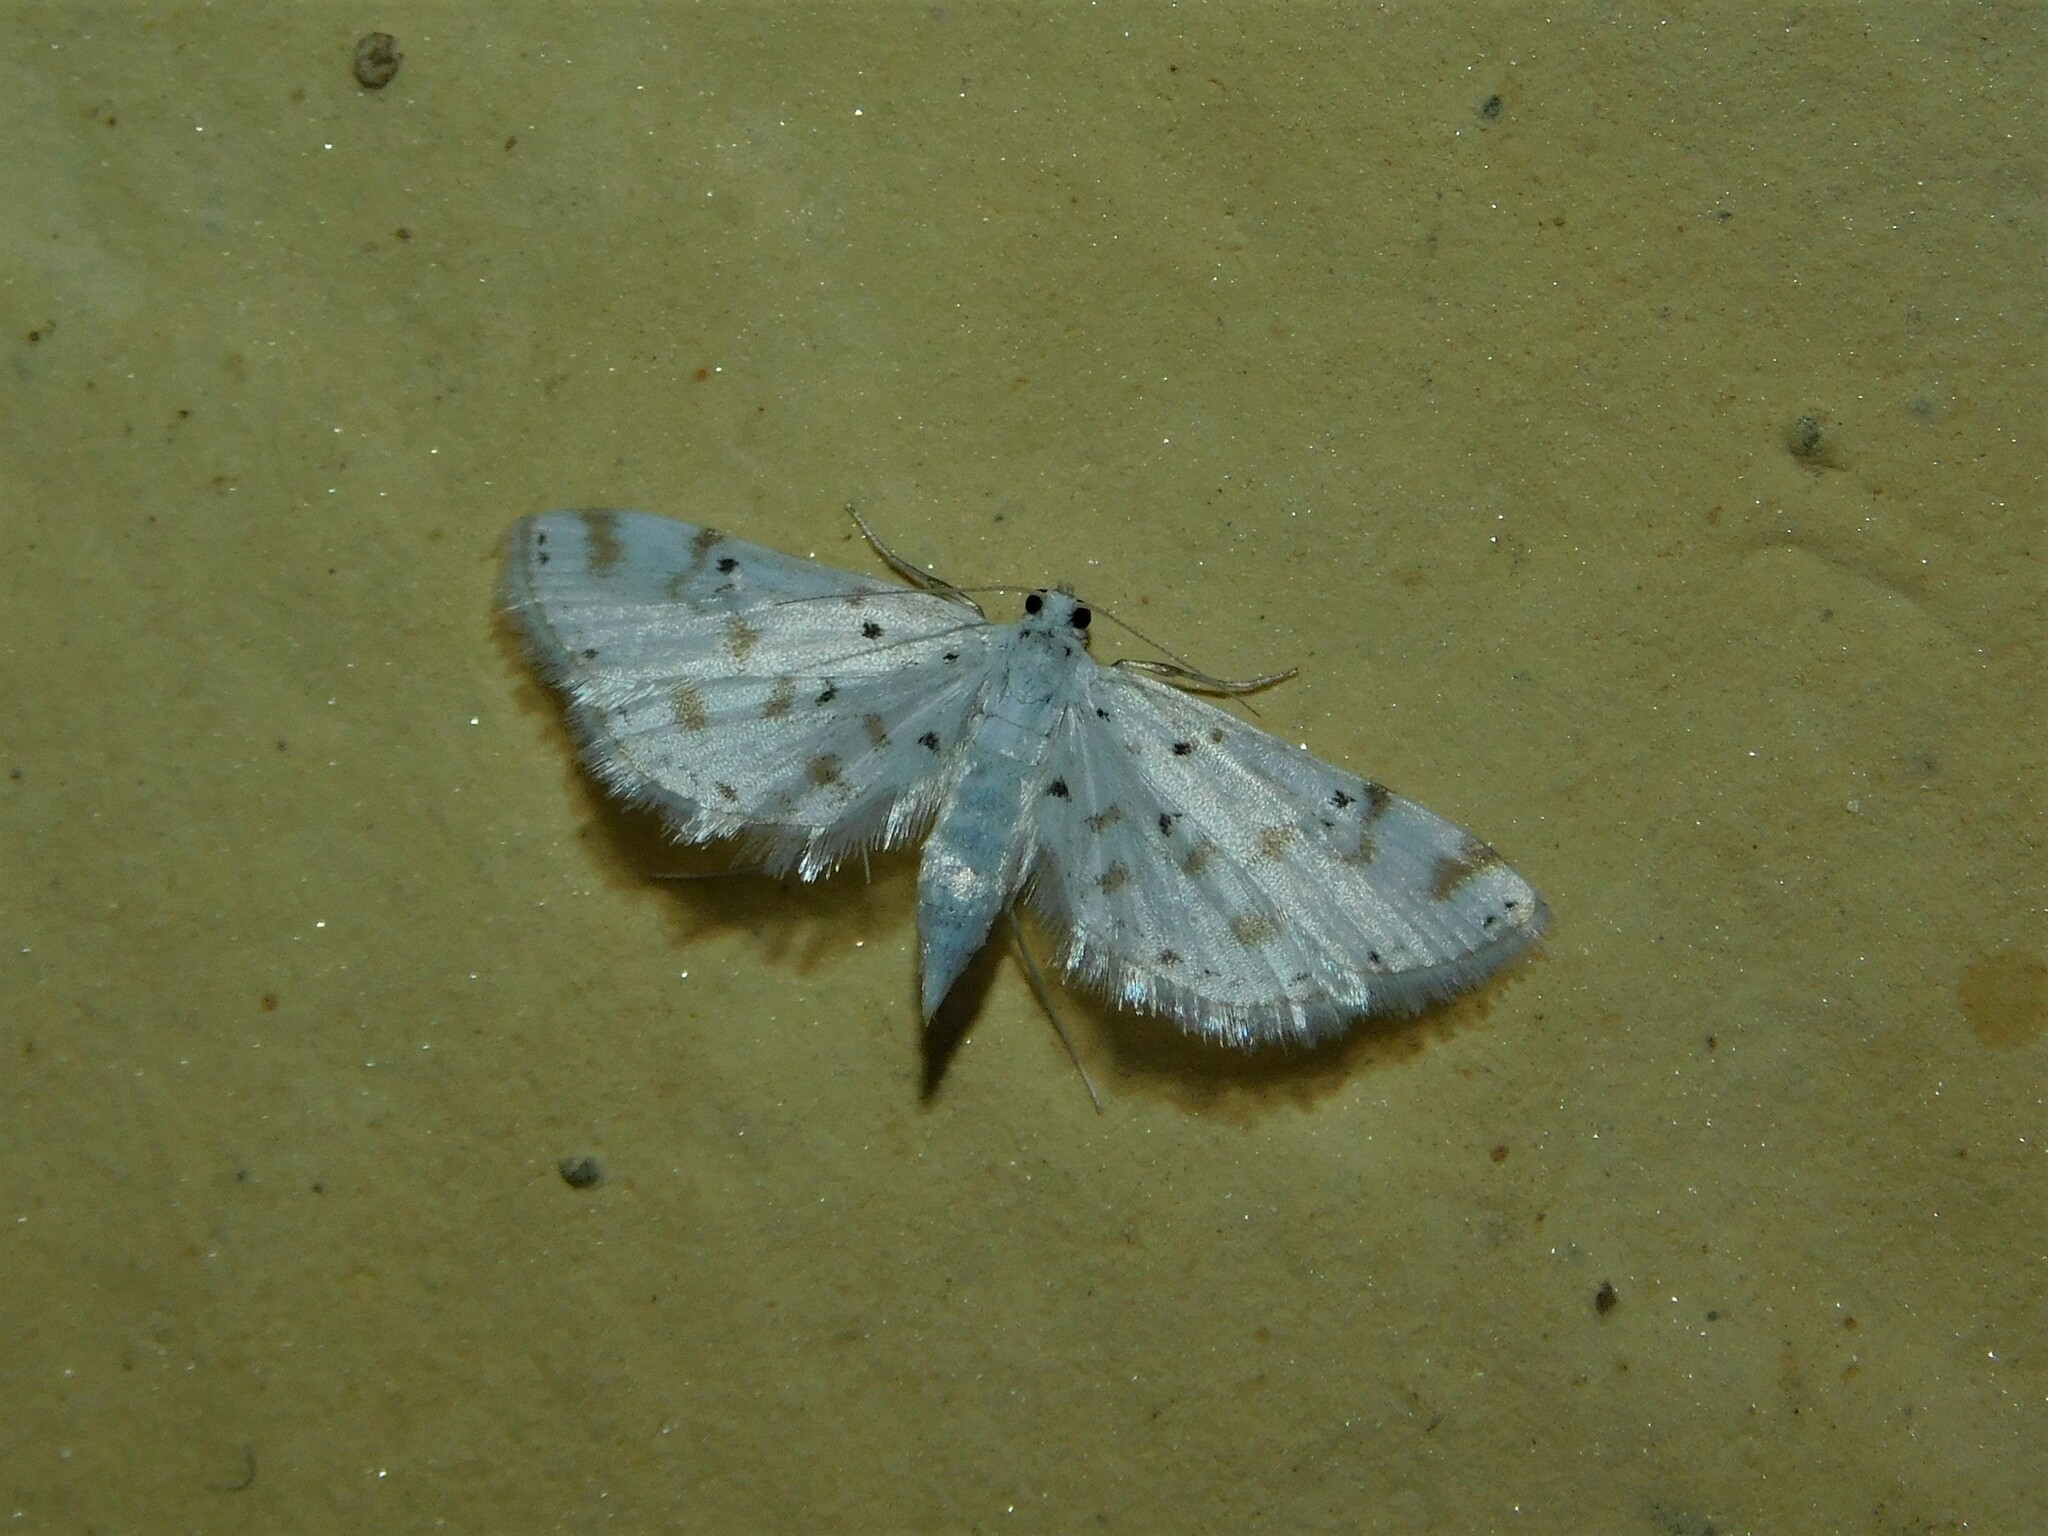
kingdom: Animalia
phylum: Arthropoda
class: Insecta
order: Lepidoptera
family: Crambidae
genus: Parapoynx
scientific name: Parapoynx stagnalis
